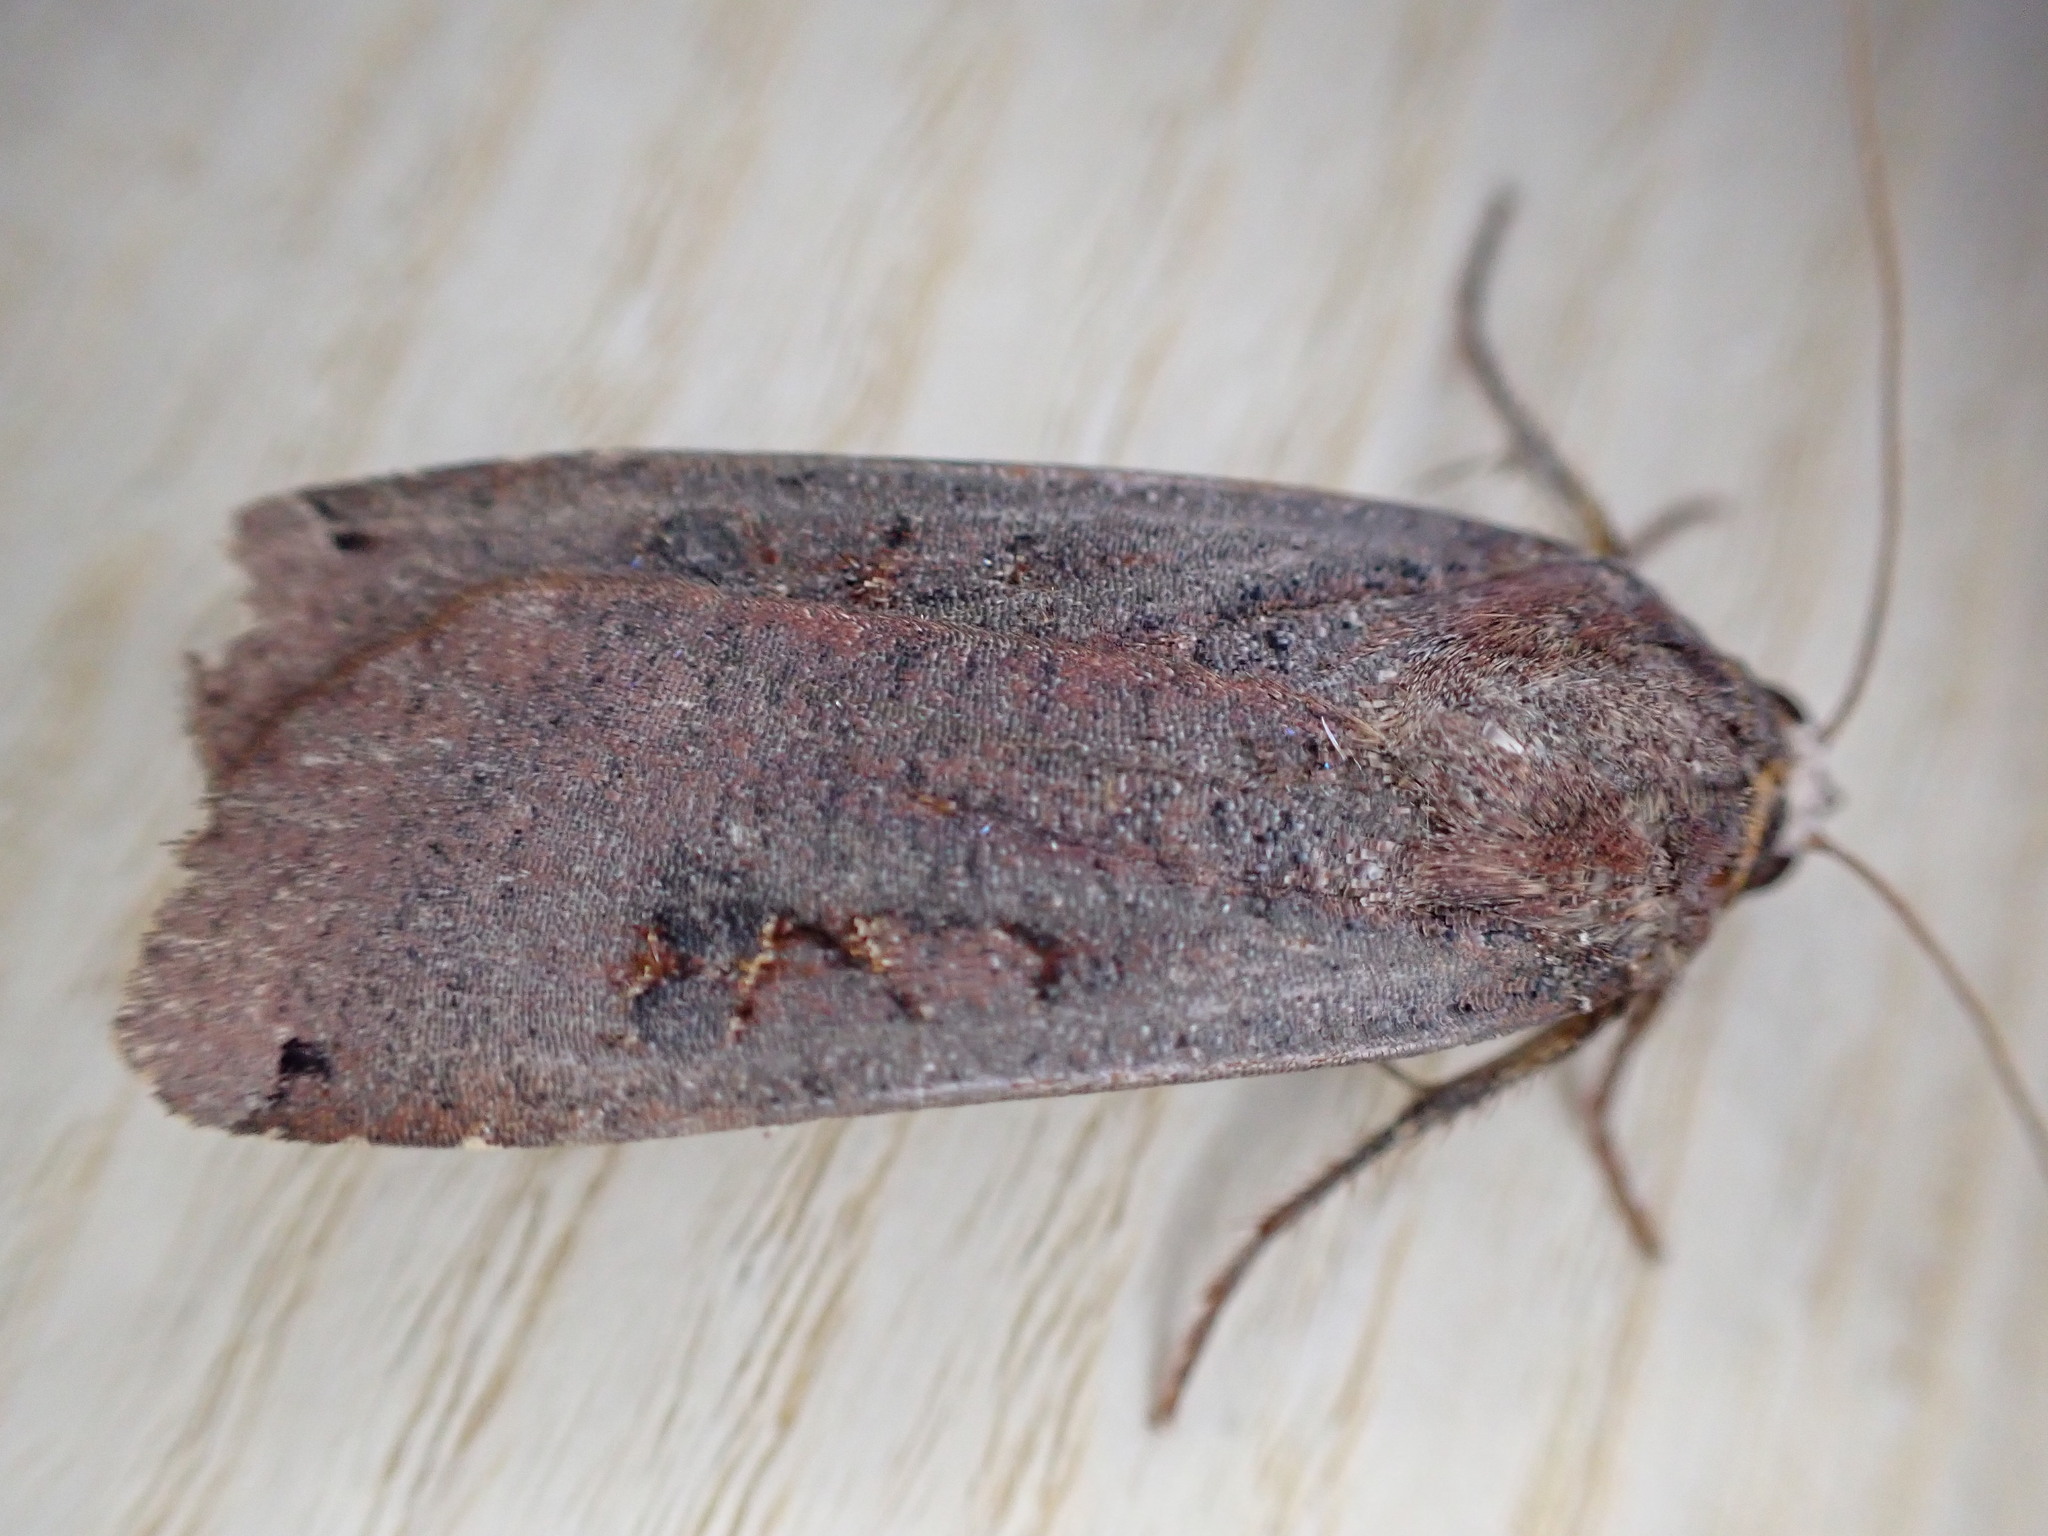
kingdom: Animalia
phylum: Arthropoda
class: Insecta
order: Lepidoptera
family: Noctuidae
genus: Noctua
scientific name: Noctua pronuba
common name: Large yellow underwing
